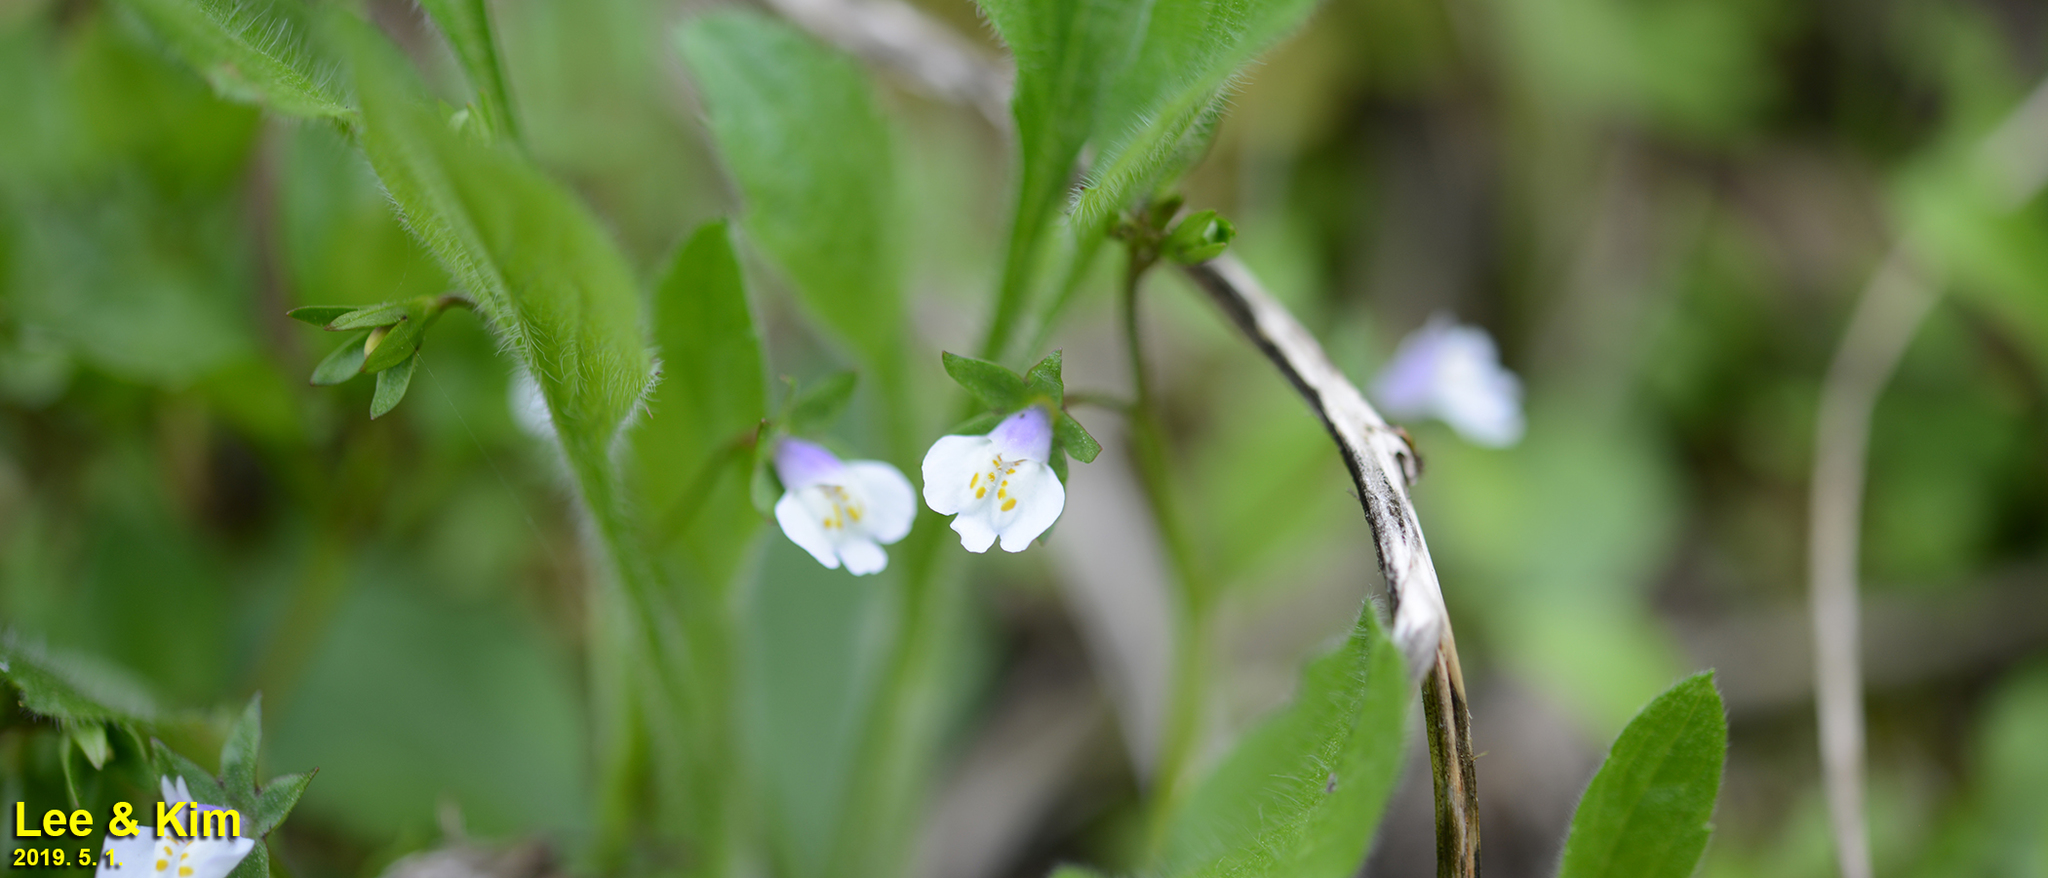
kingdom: Plantae
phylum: Tracheophyta
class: Magnoliopsida
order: Lamiales
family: Mazaceae
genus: Mazus
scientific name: Mazus pumilus
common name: Japanese mazus
